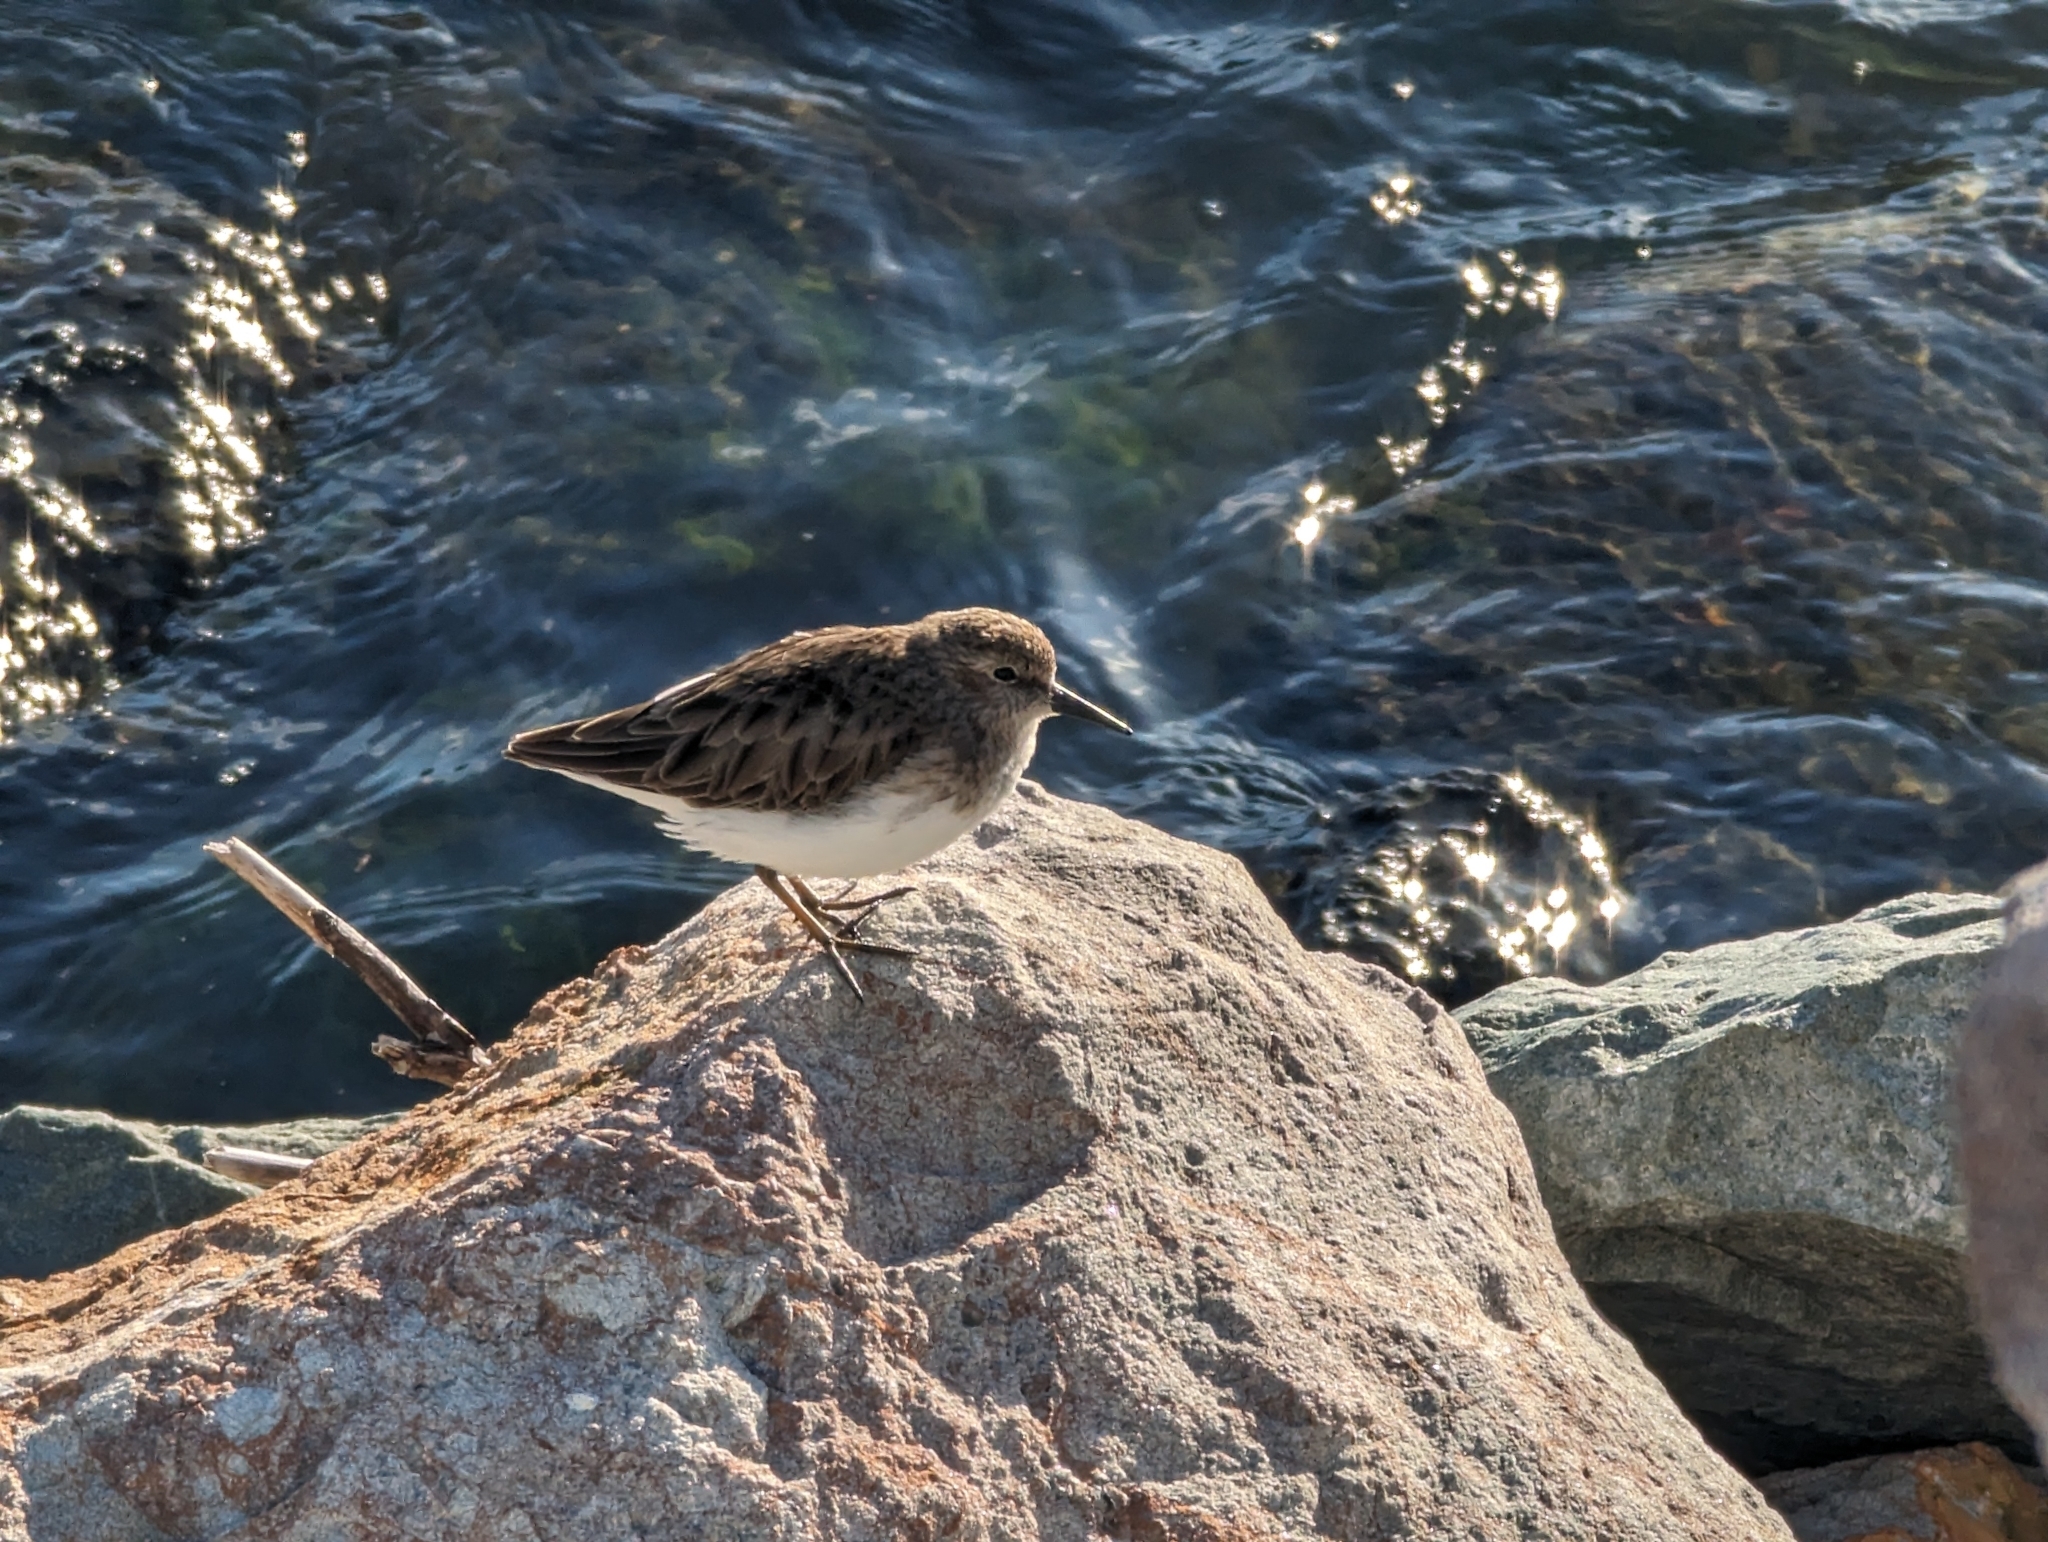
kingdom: Animalia
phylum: Chordata
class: Aves
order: Charadriiformes
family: Scolopacidae
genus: Calidris
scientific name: Calidris minutilla
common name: Least sandpiper
